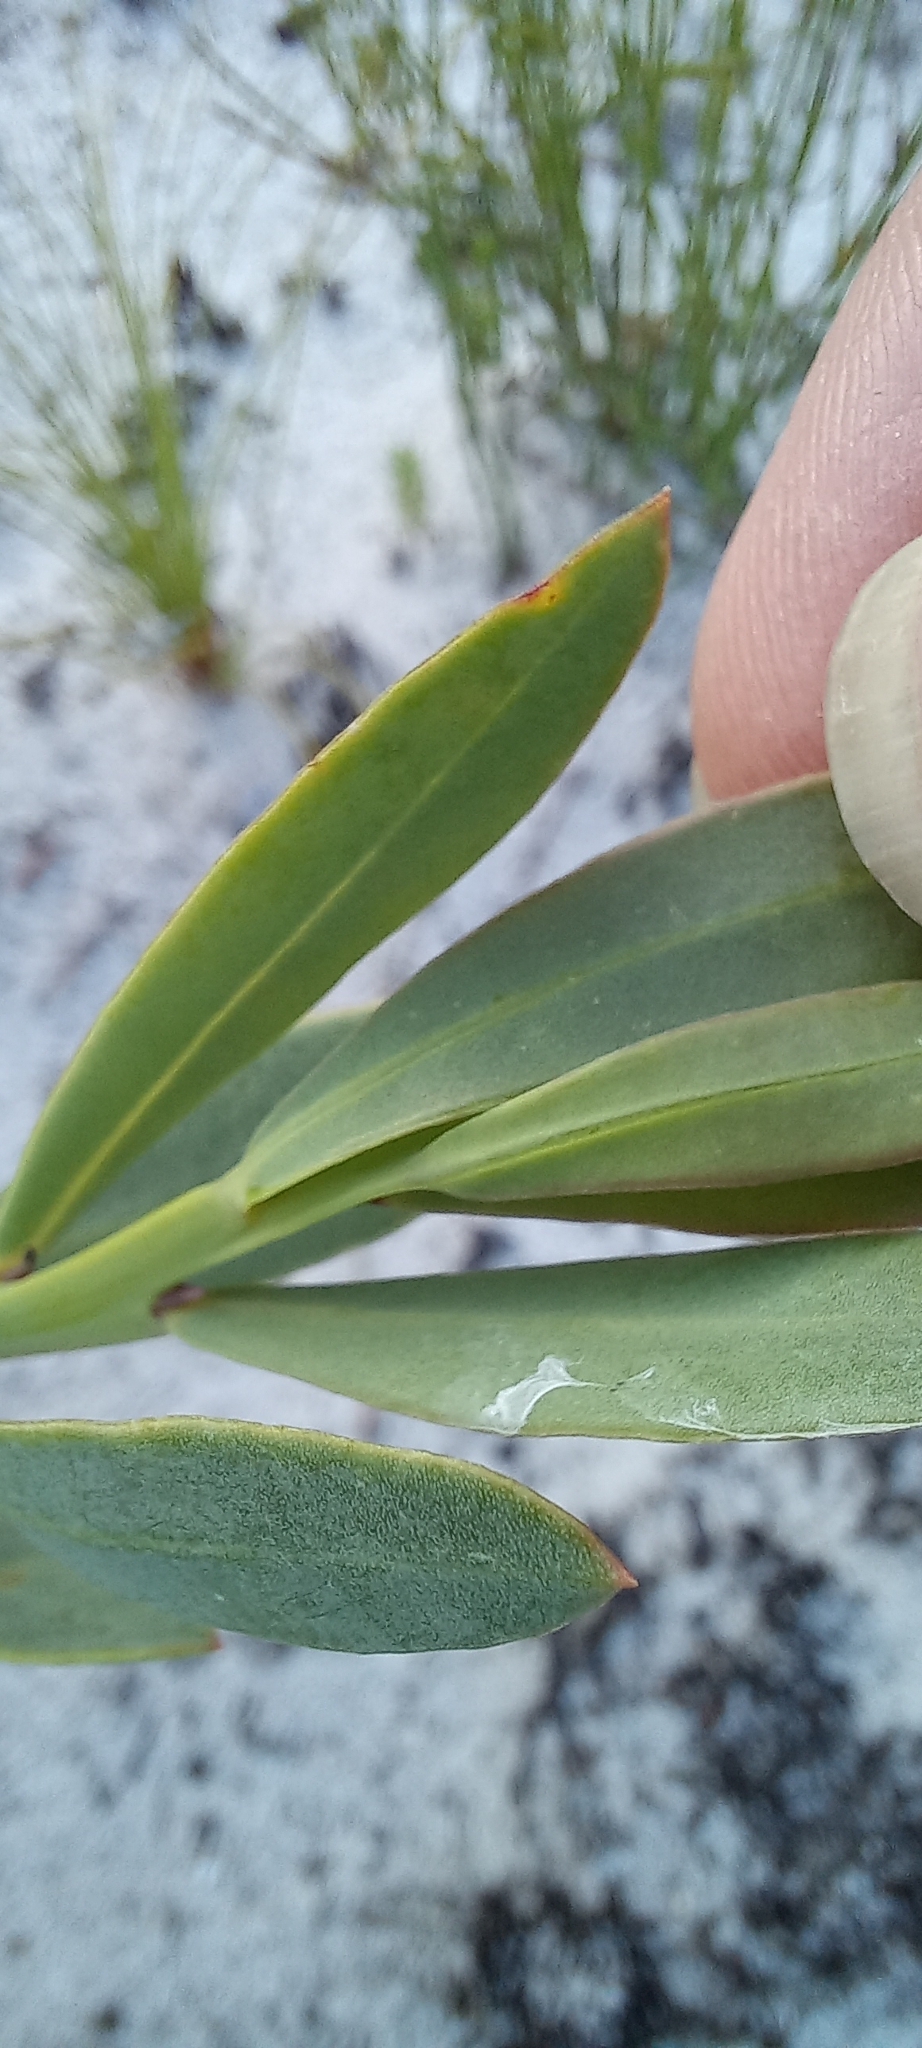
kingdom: Plantae
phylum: Tracheophyta
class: Magnoliopsida
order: Fabales
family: Fabaceae
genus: Rafnia
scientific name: Rafnia triflora
